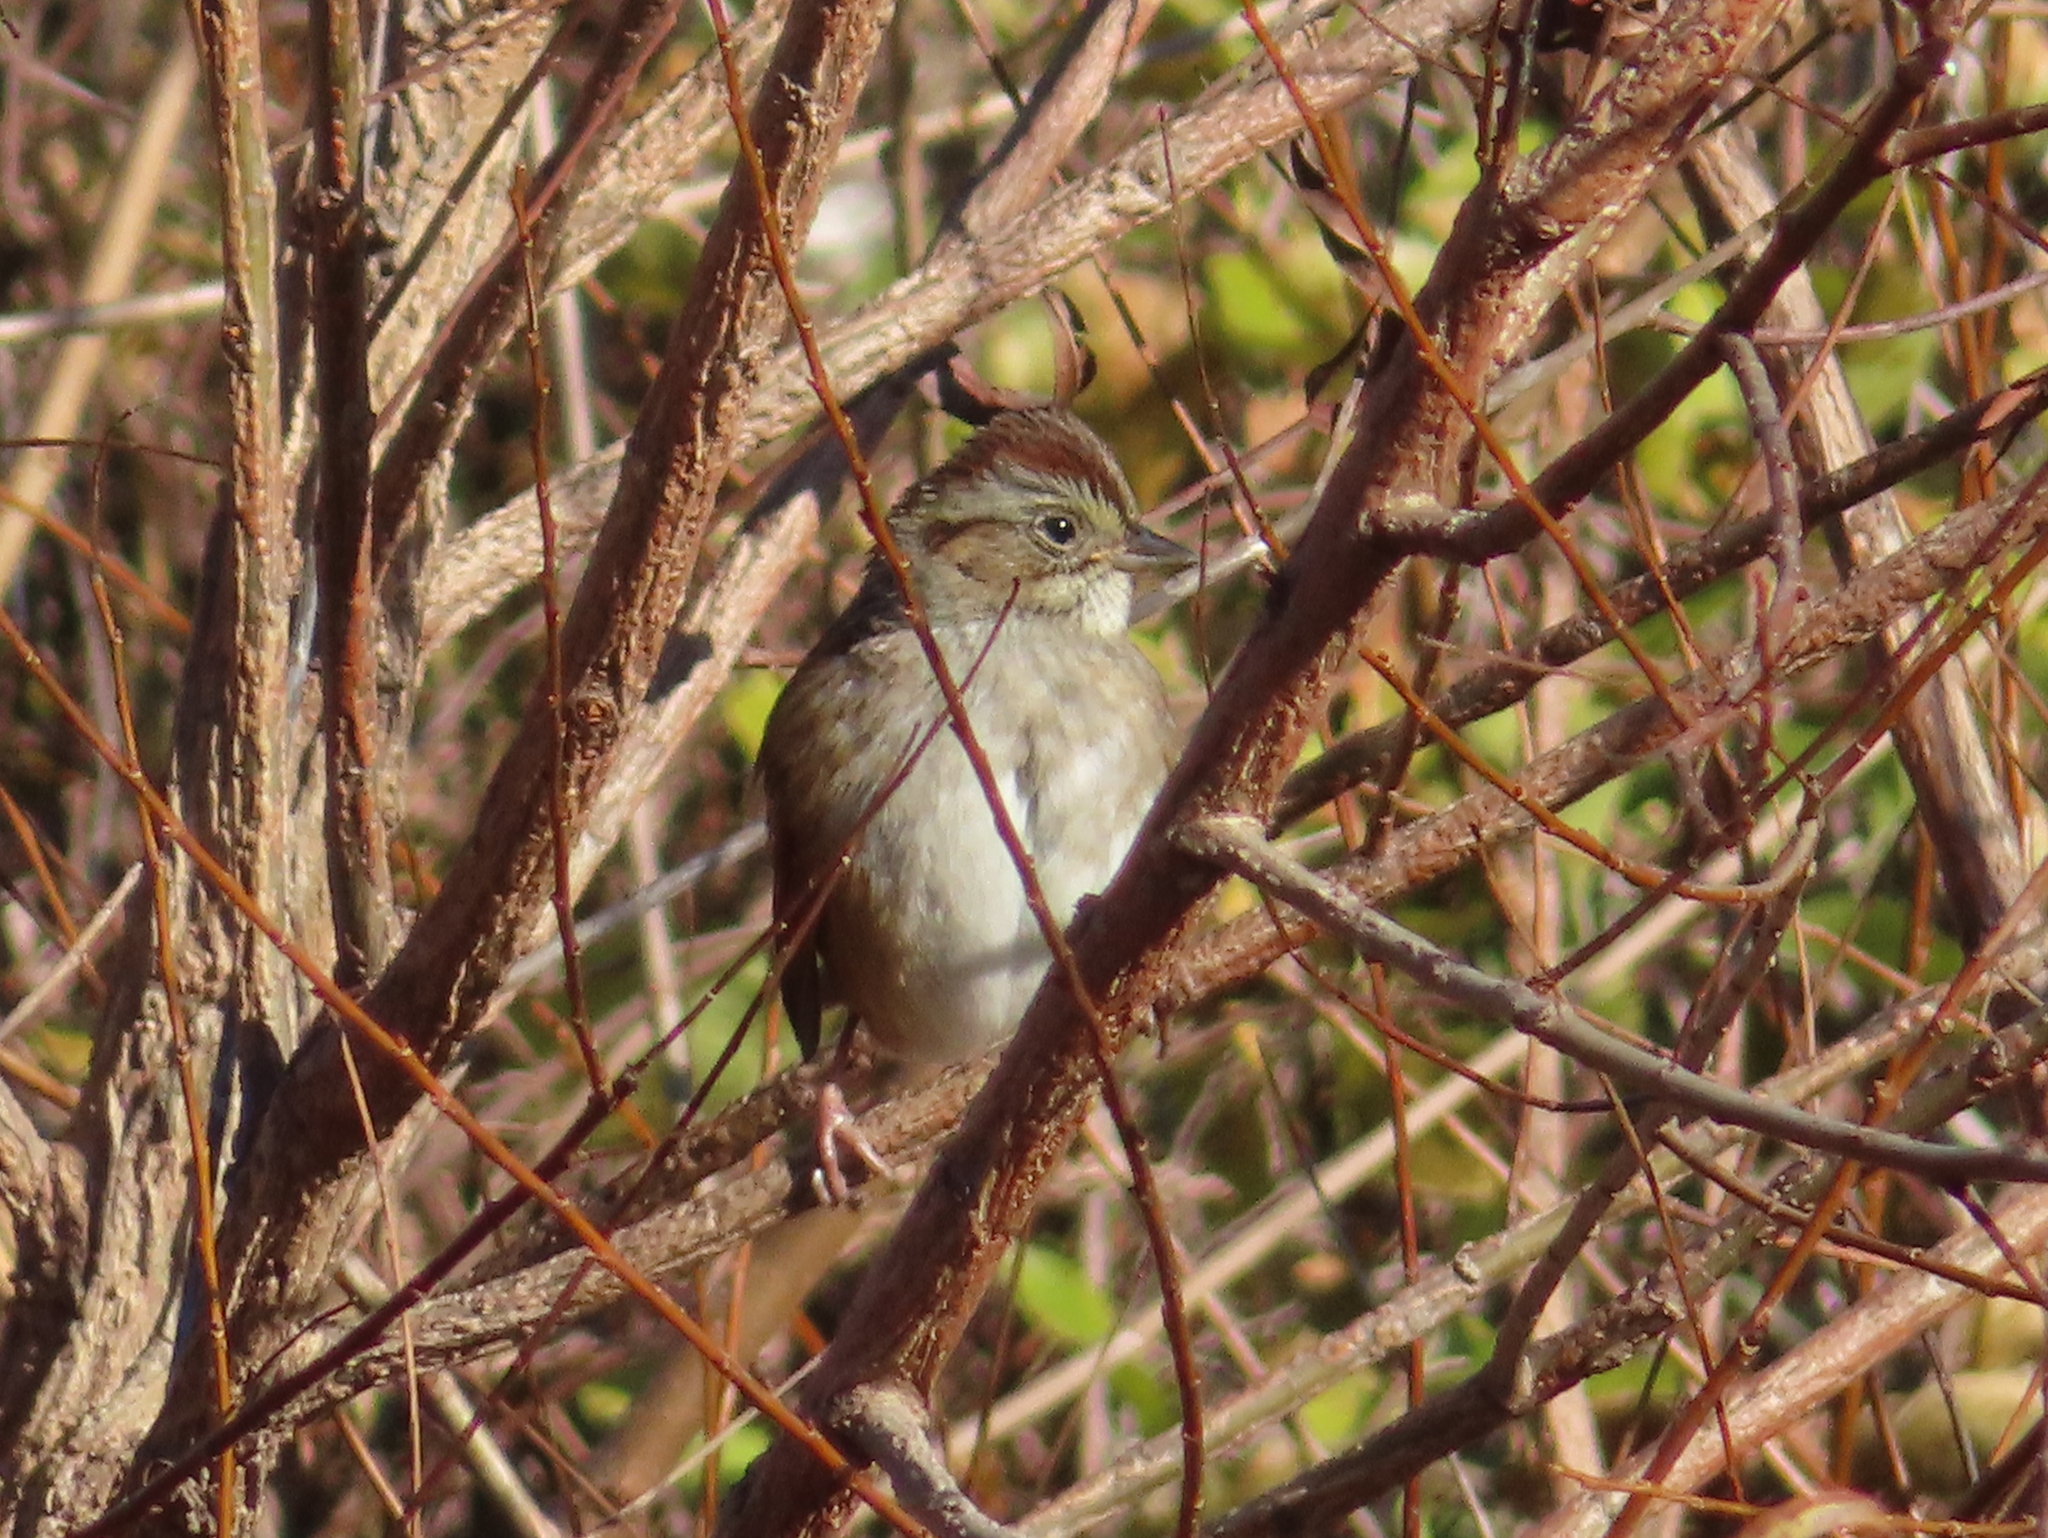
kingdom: Animalia
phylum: Chordata
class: Aves
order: Passeriformes
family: Passerellidae
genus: Melospiza
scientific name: Melospiza georgiana
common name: Swamp sparrow
